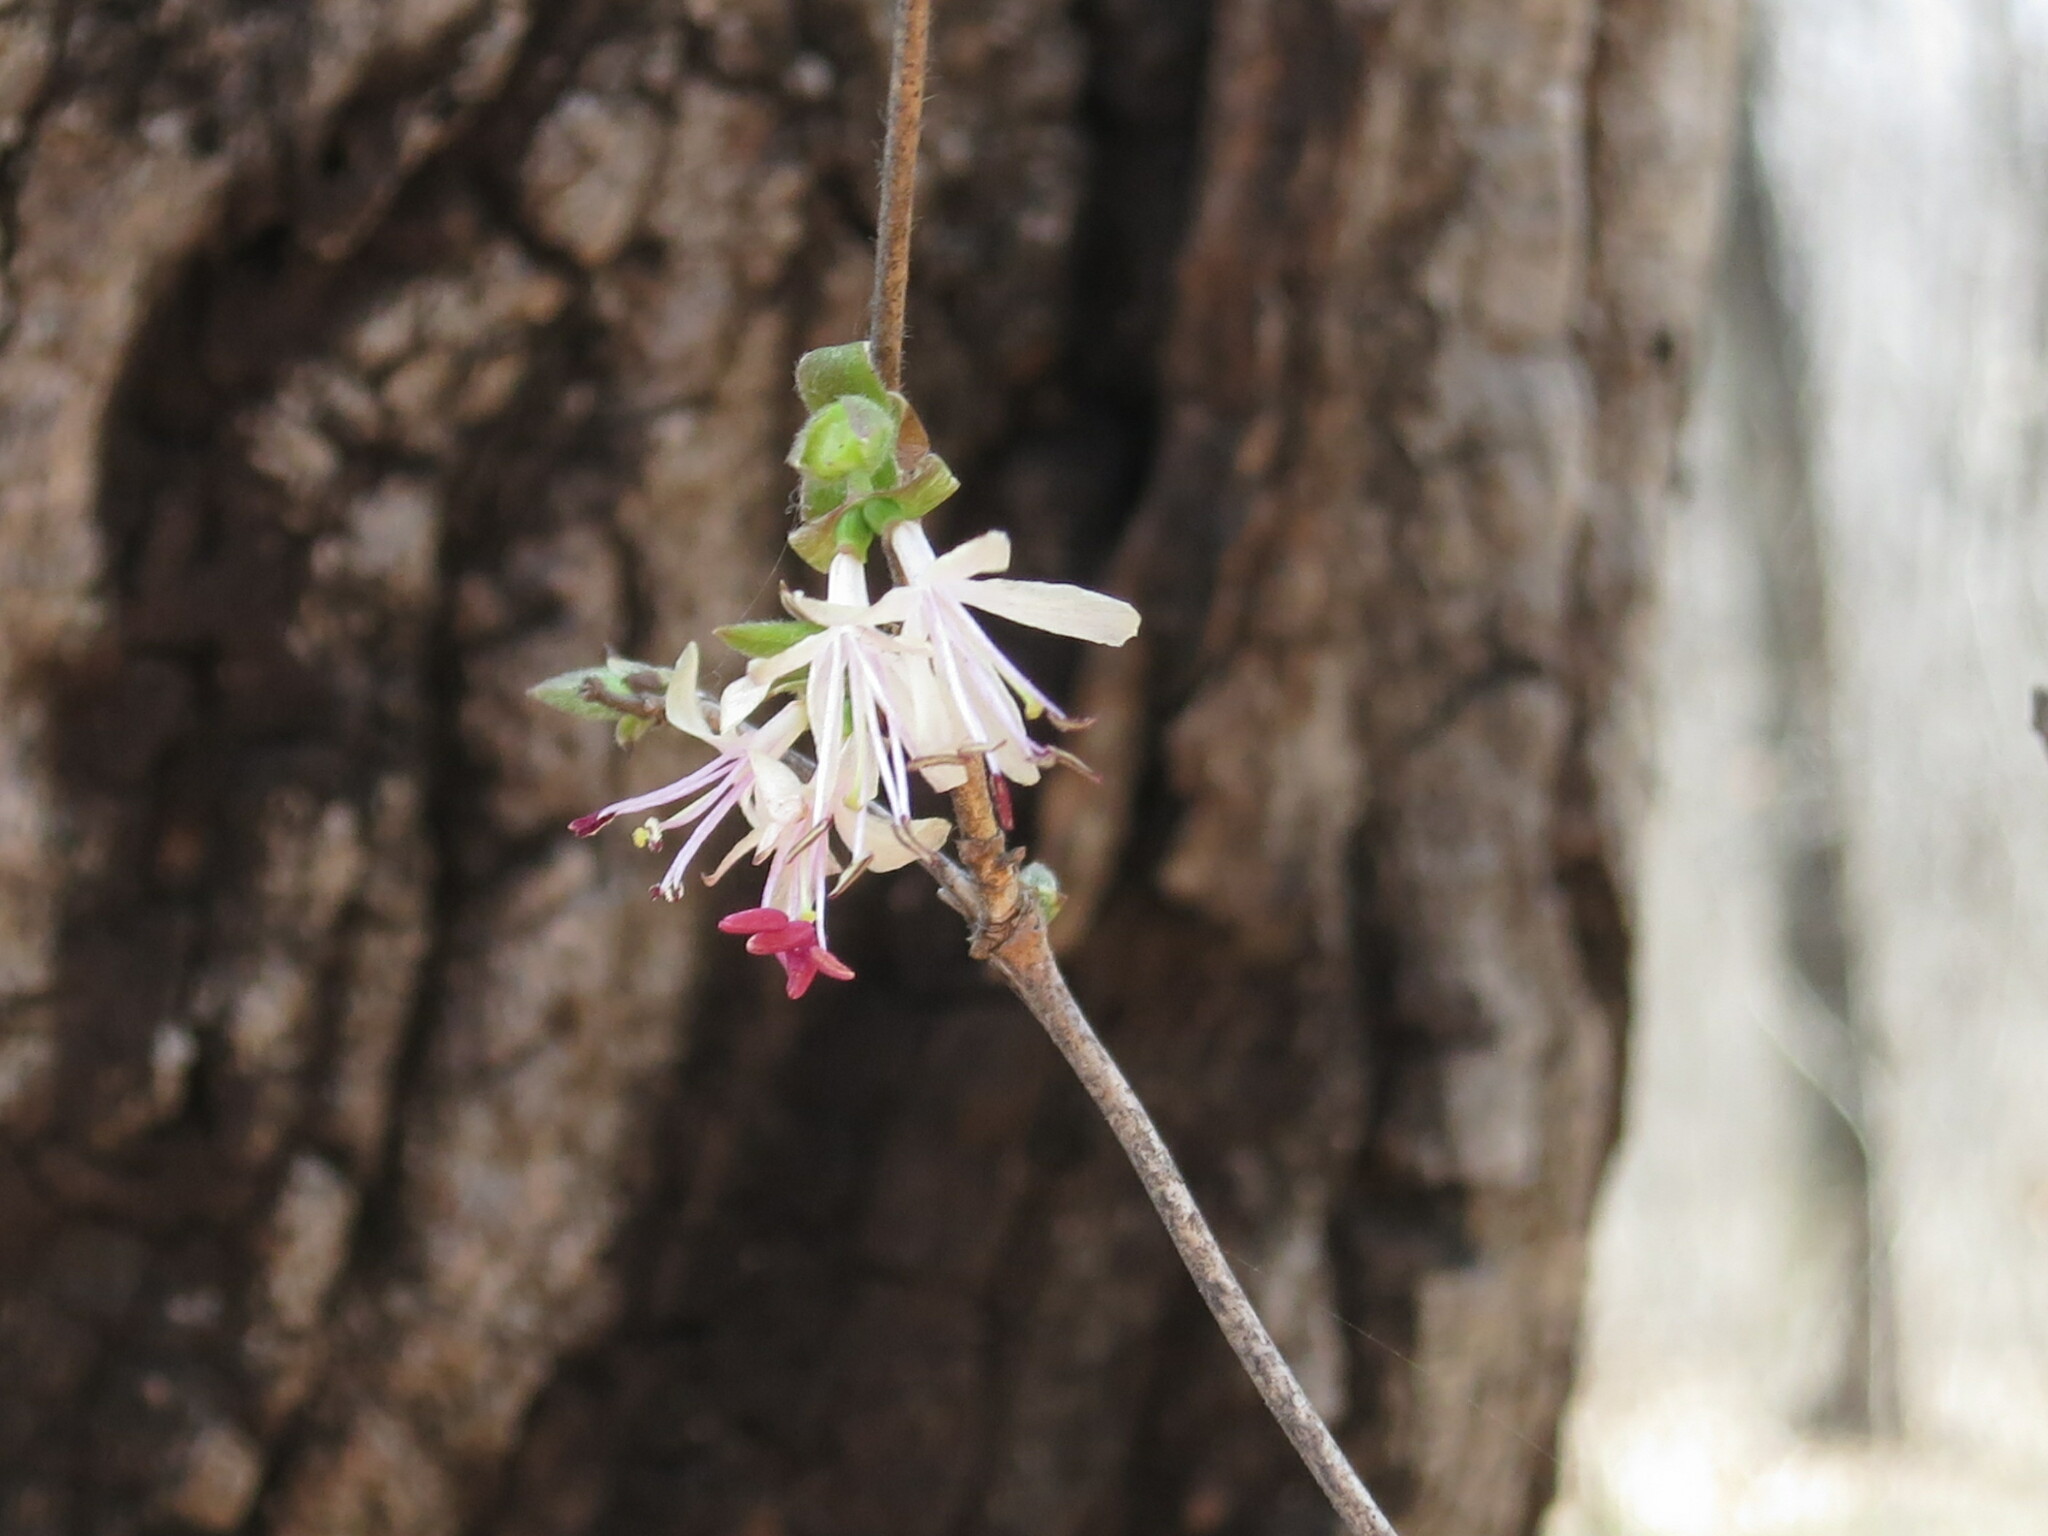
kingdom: Plantae
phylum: Tracheophyta
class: Magnoliopsida
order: Dipsacales
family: Caprifoliaceae
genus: Lonicera
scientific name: Lonicera praeflorens
